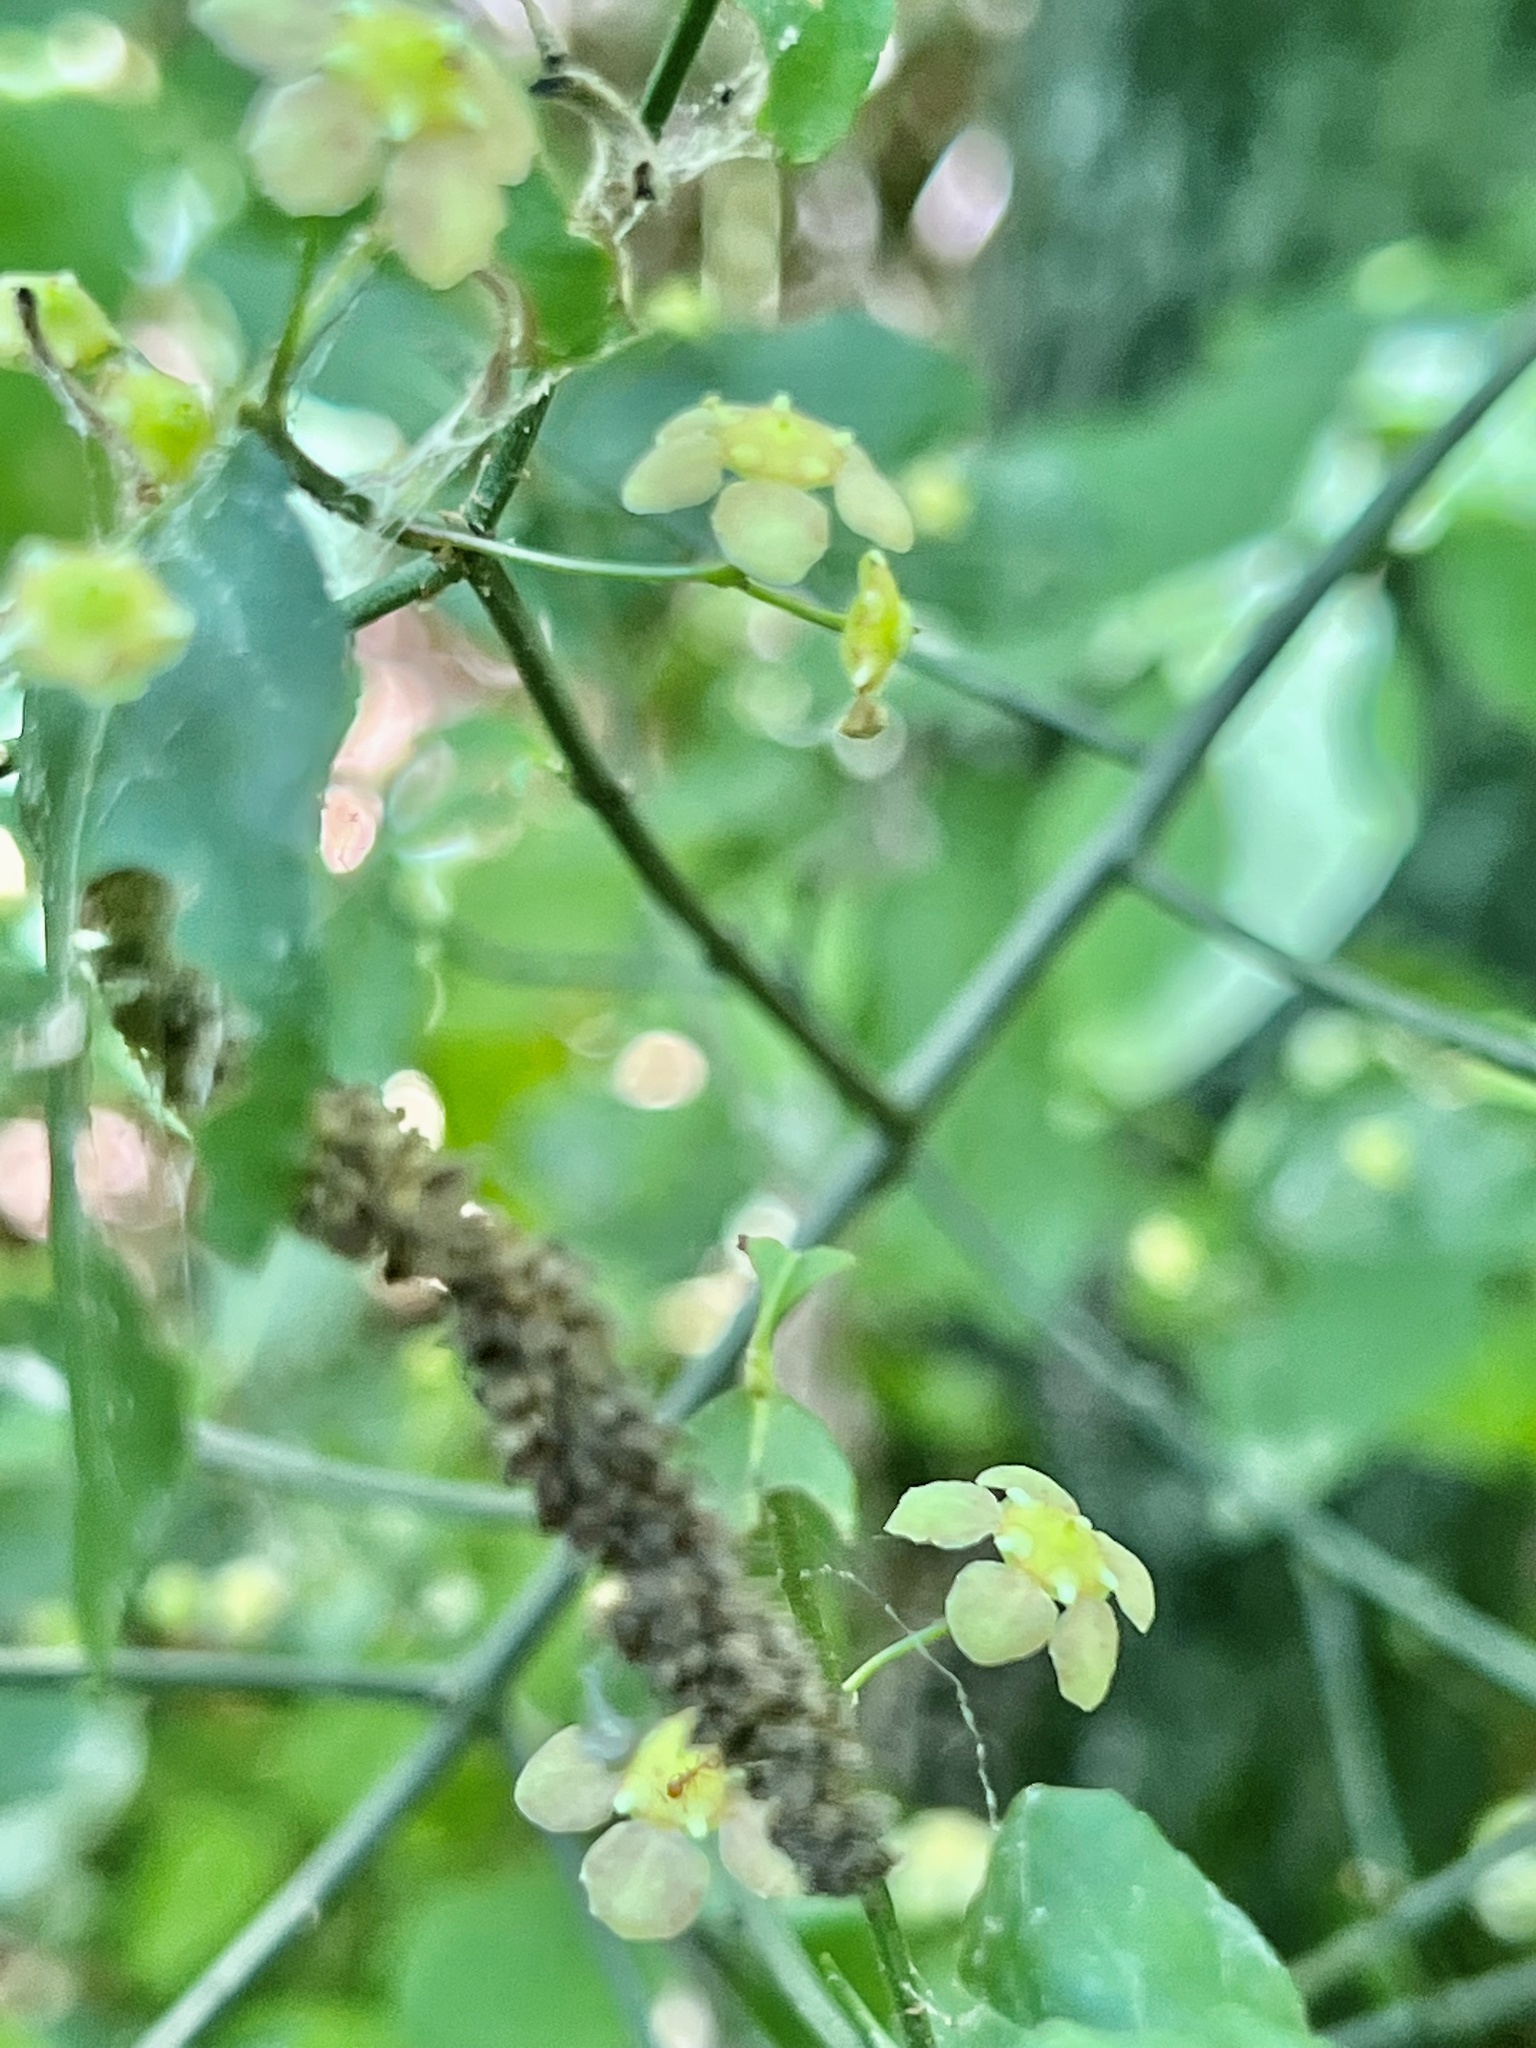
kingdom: Plantae
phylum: Tracheophyta
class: Magnoliopsida
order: Celastrales
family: Celastraceae
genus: Euonymus
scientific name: Euonymus americanus
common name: Bursting-heart
